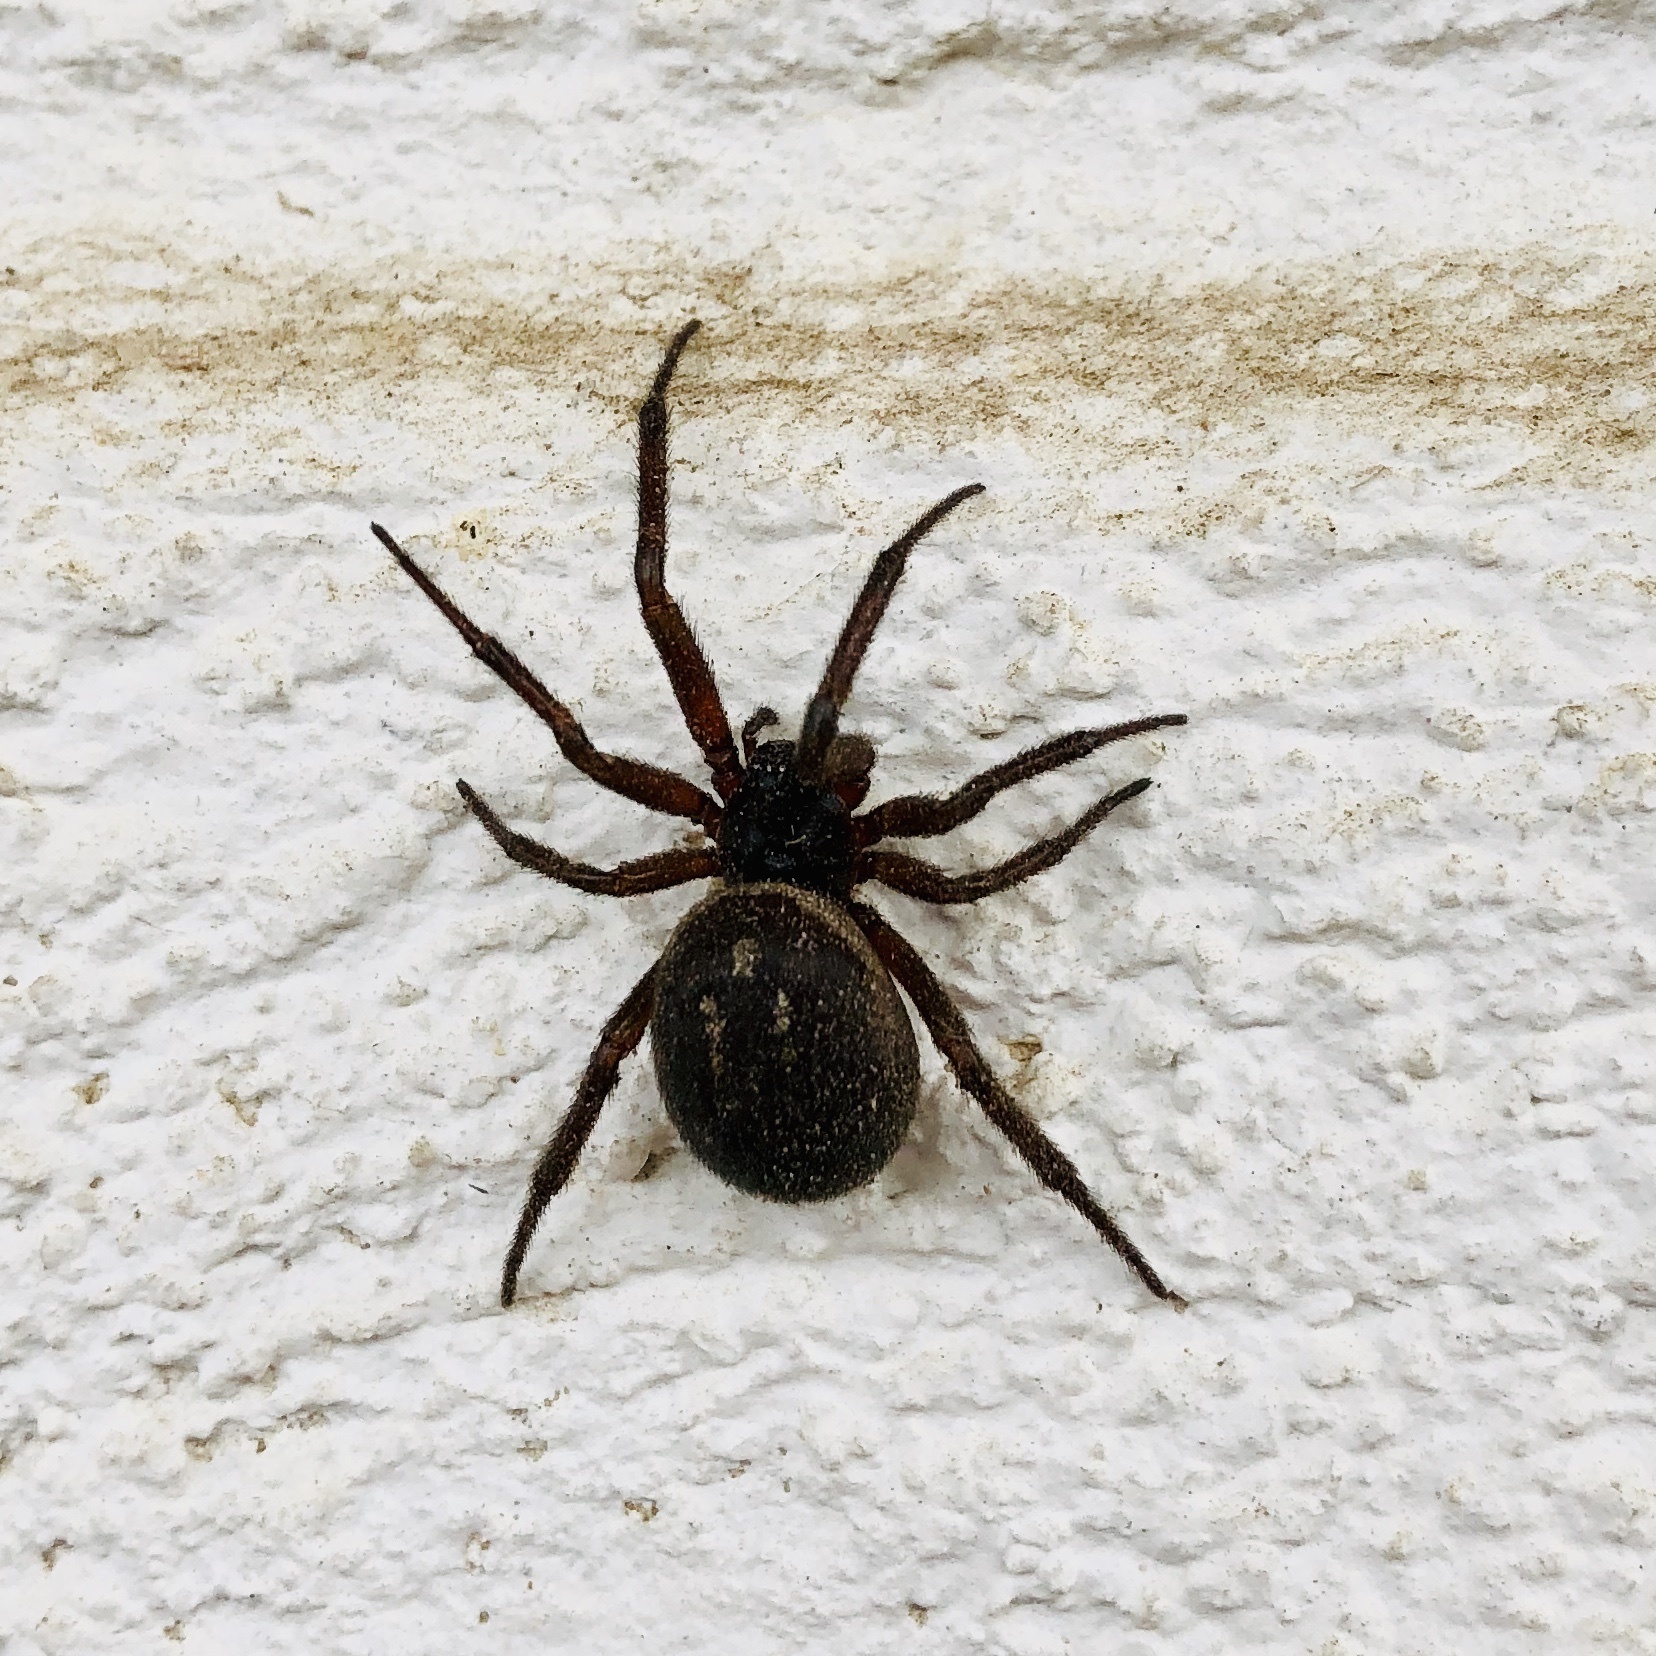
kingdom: Animalia
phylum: Arthropoda
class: Arachnida
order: Araneae
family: Theridiidae
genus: Steatoda
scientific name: Steatoda nobilis
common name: Cobweb weaver
